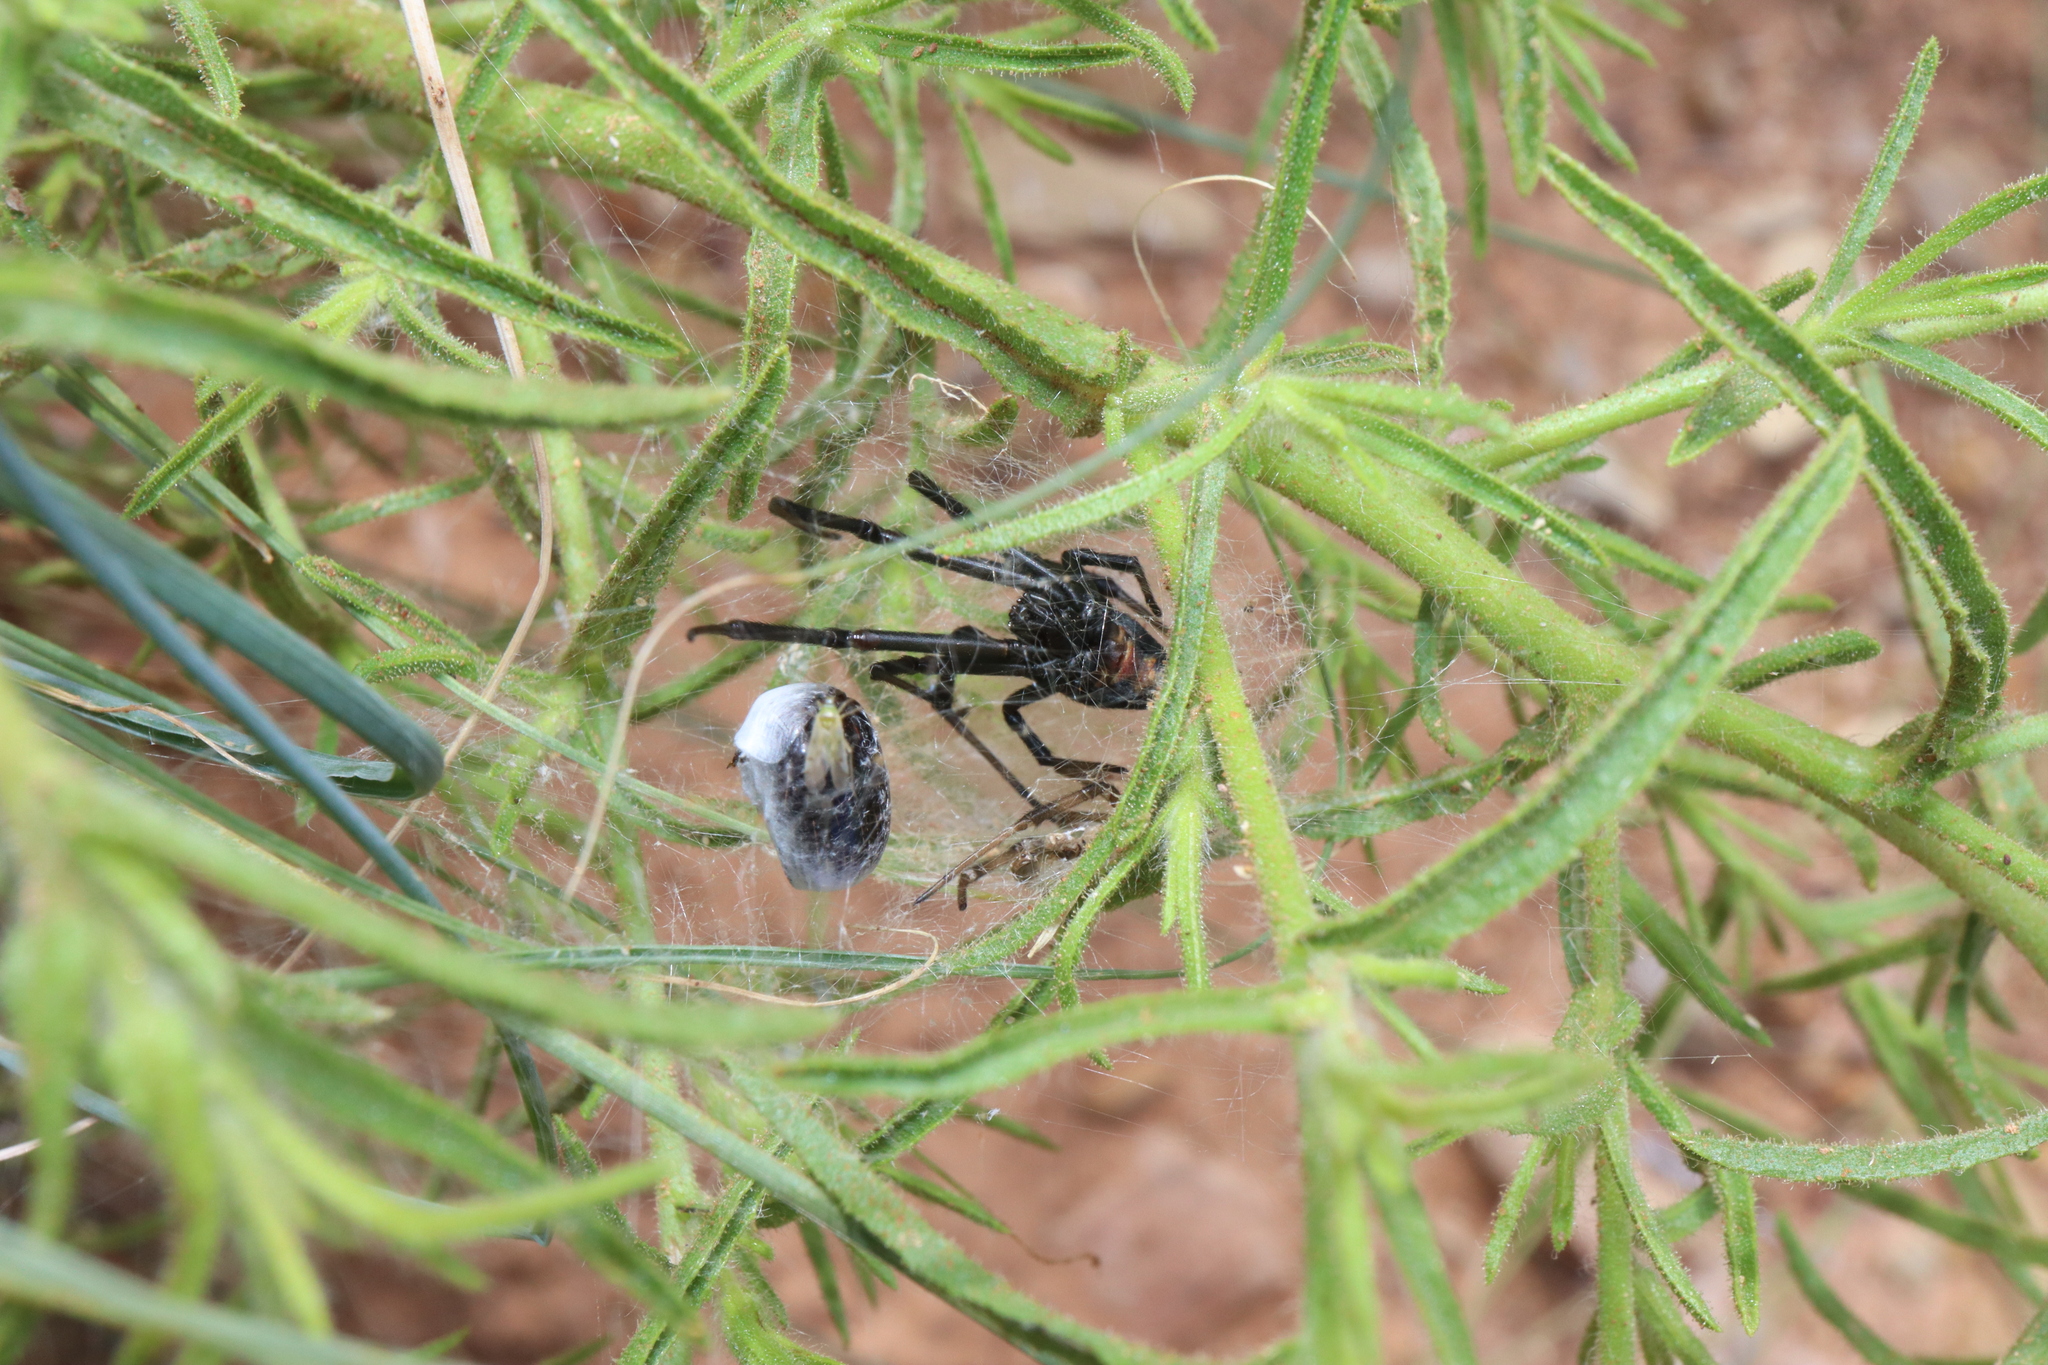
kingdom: Animalia
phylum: Arthropoda
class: Arachnida
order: Araneae
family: Theridiidae
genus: Latrodectus
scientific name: Latrodectus hasselti
